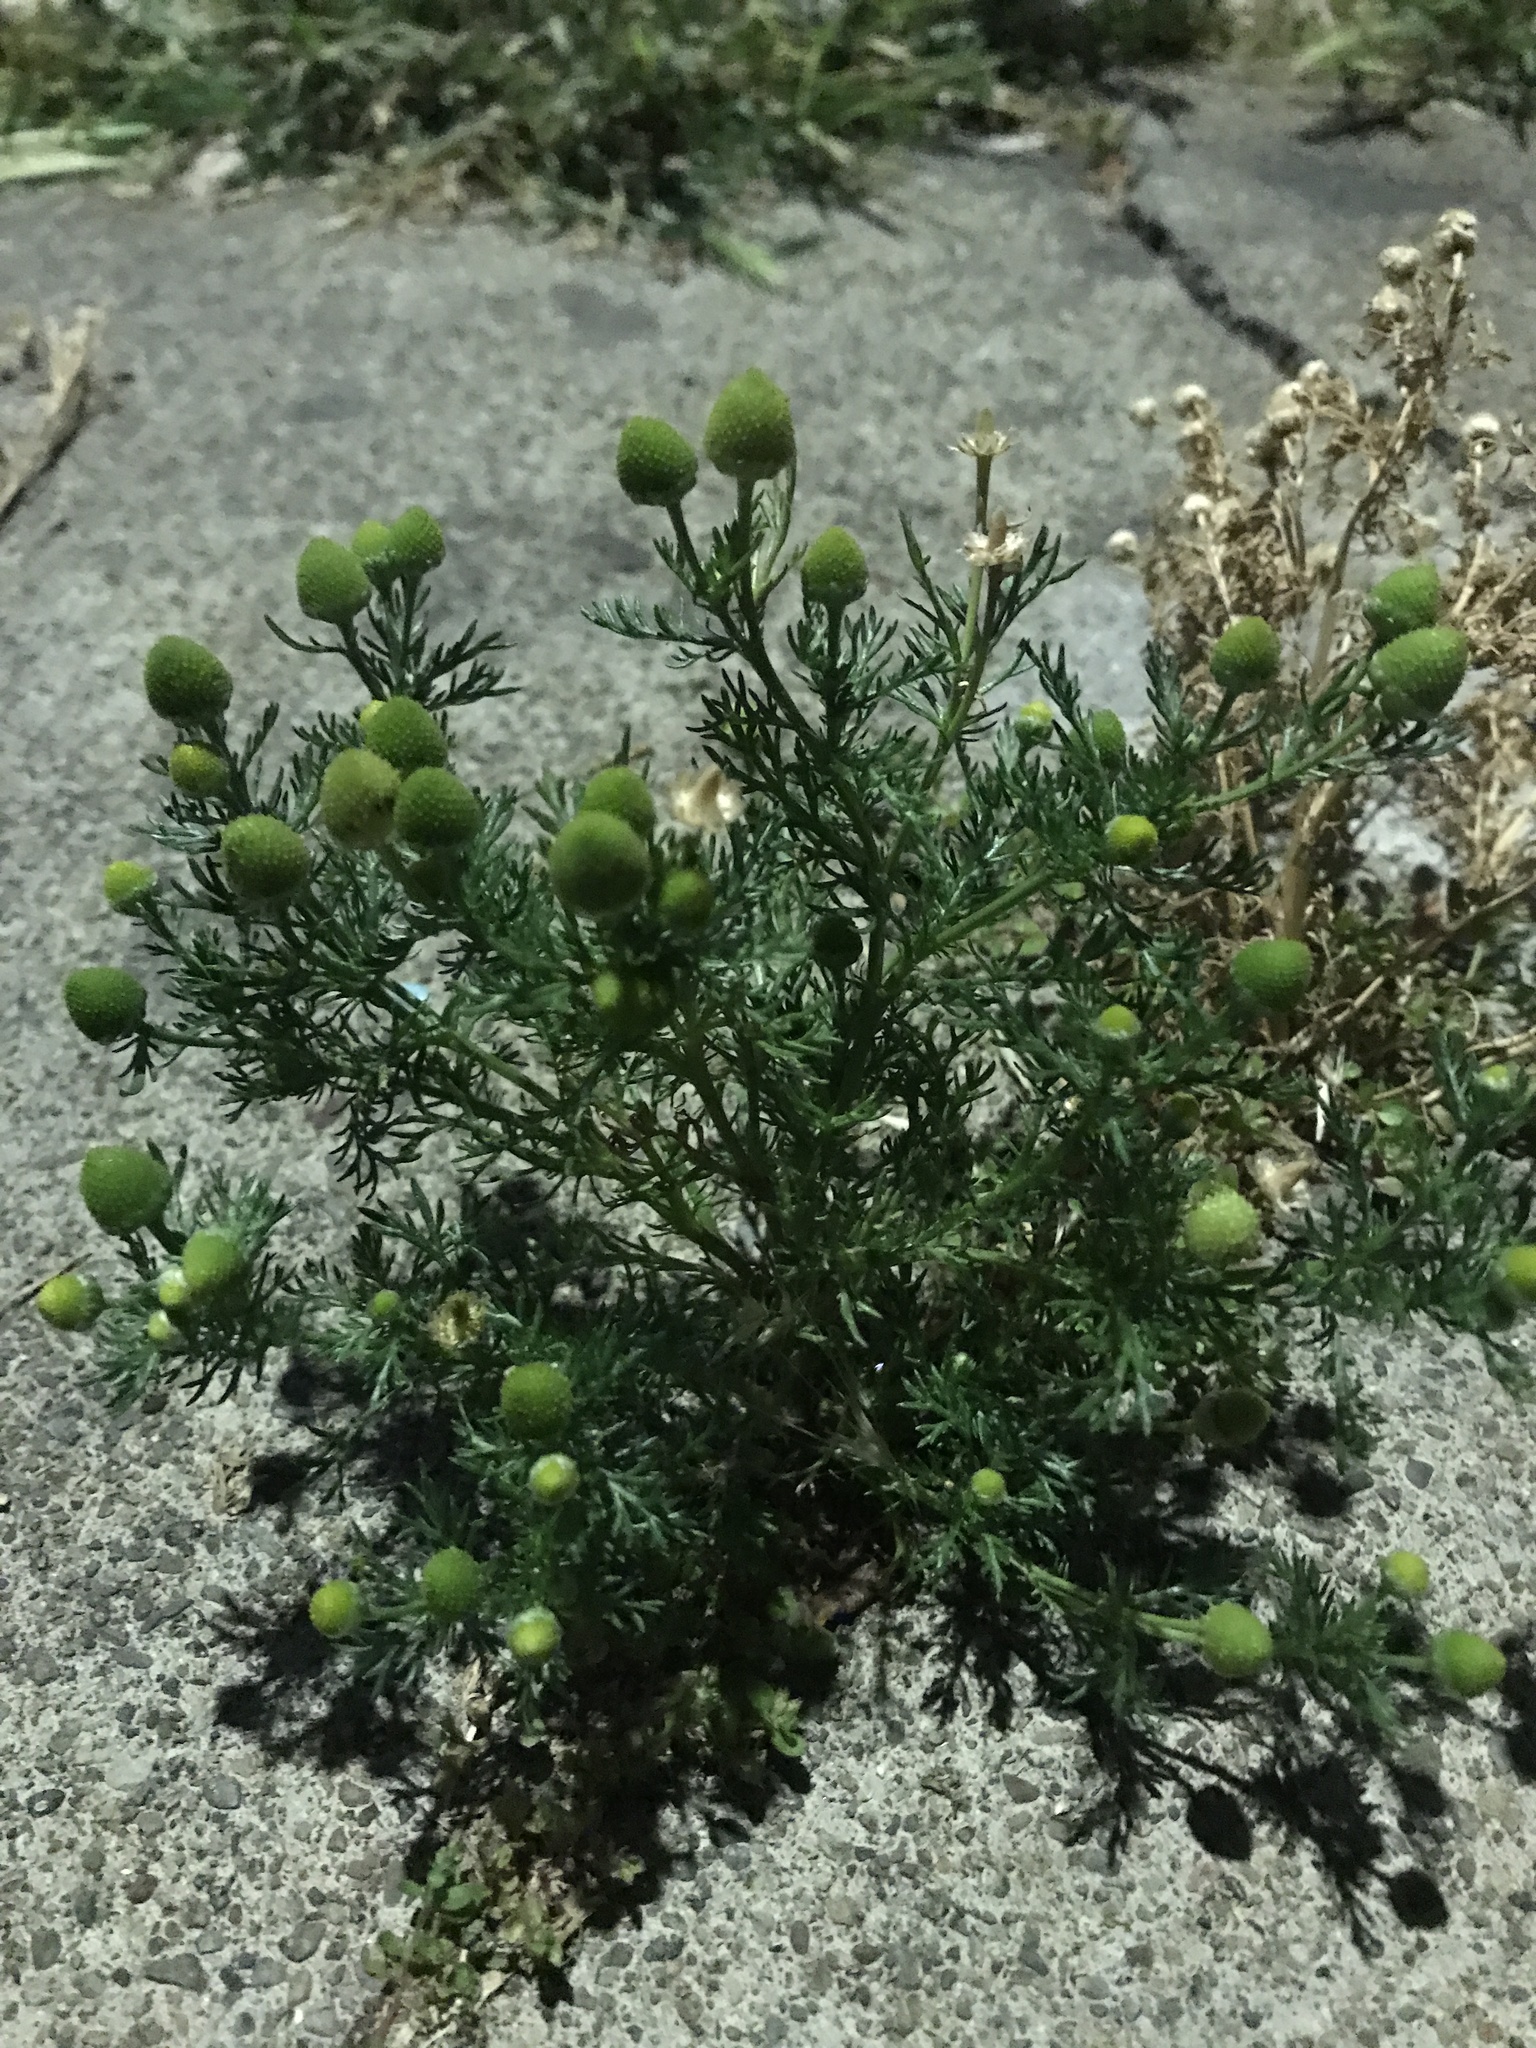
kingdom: Plantae
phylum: Tracheophyta
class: Magnoliopsida
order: Asterales
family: Asteraceae
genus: Matricaria
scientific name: Matricaria discoidea
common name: Disc mayweed
